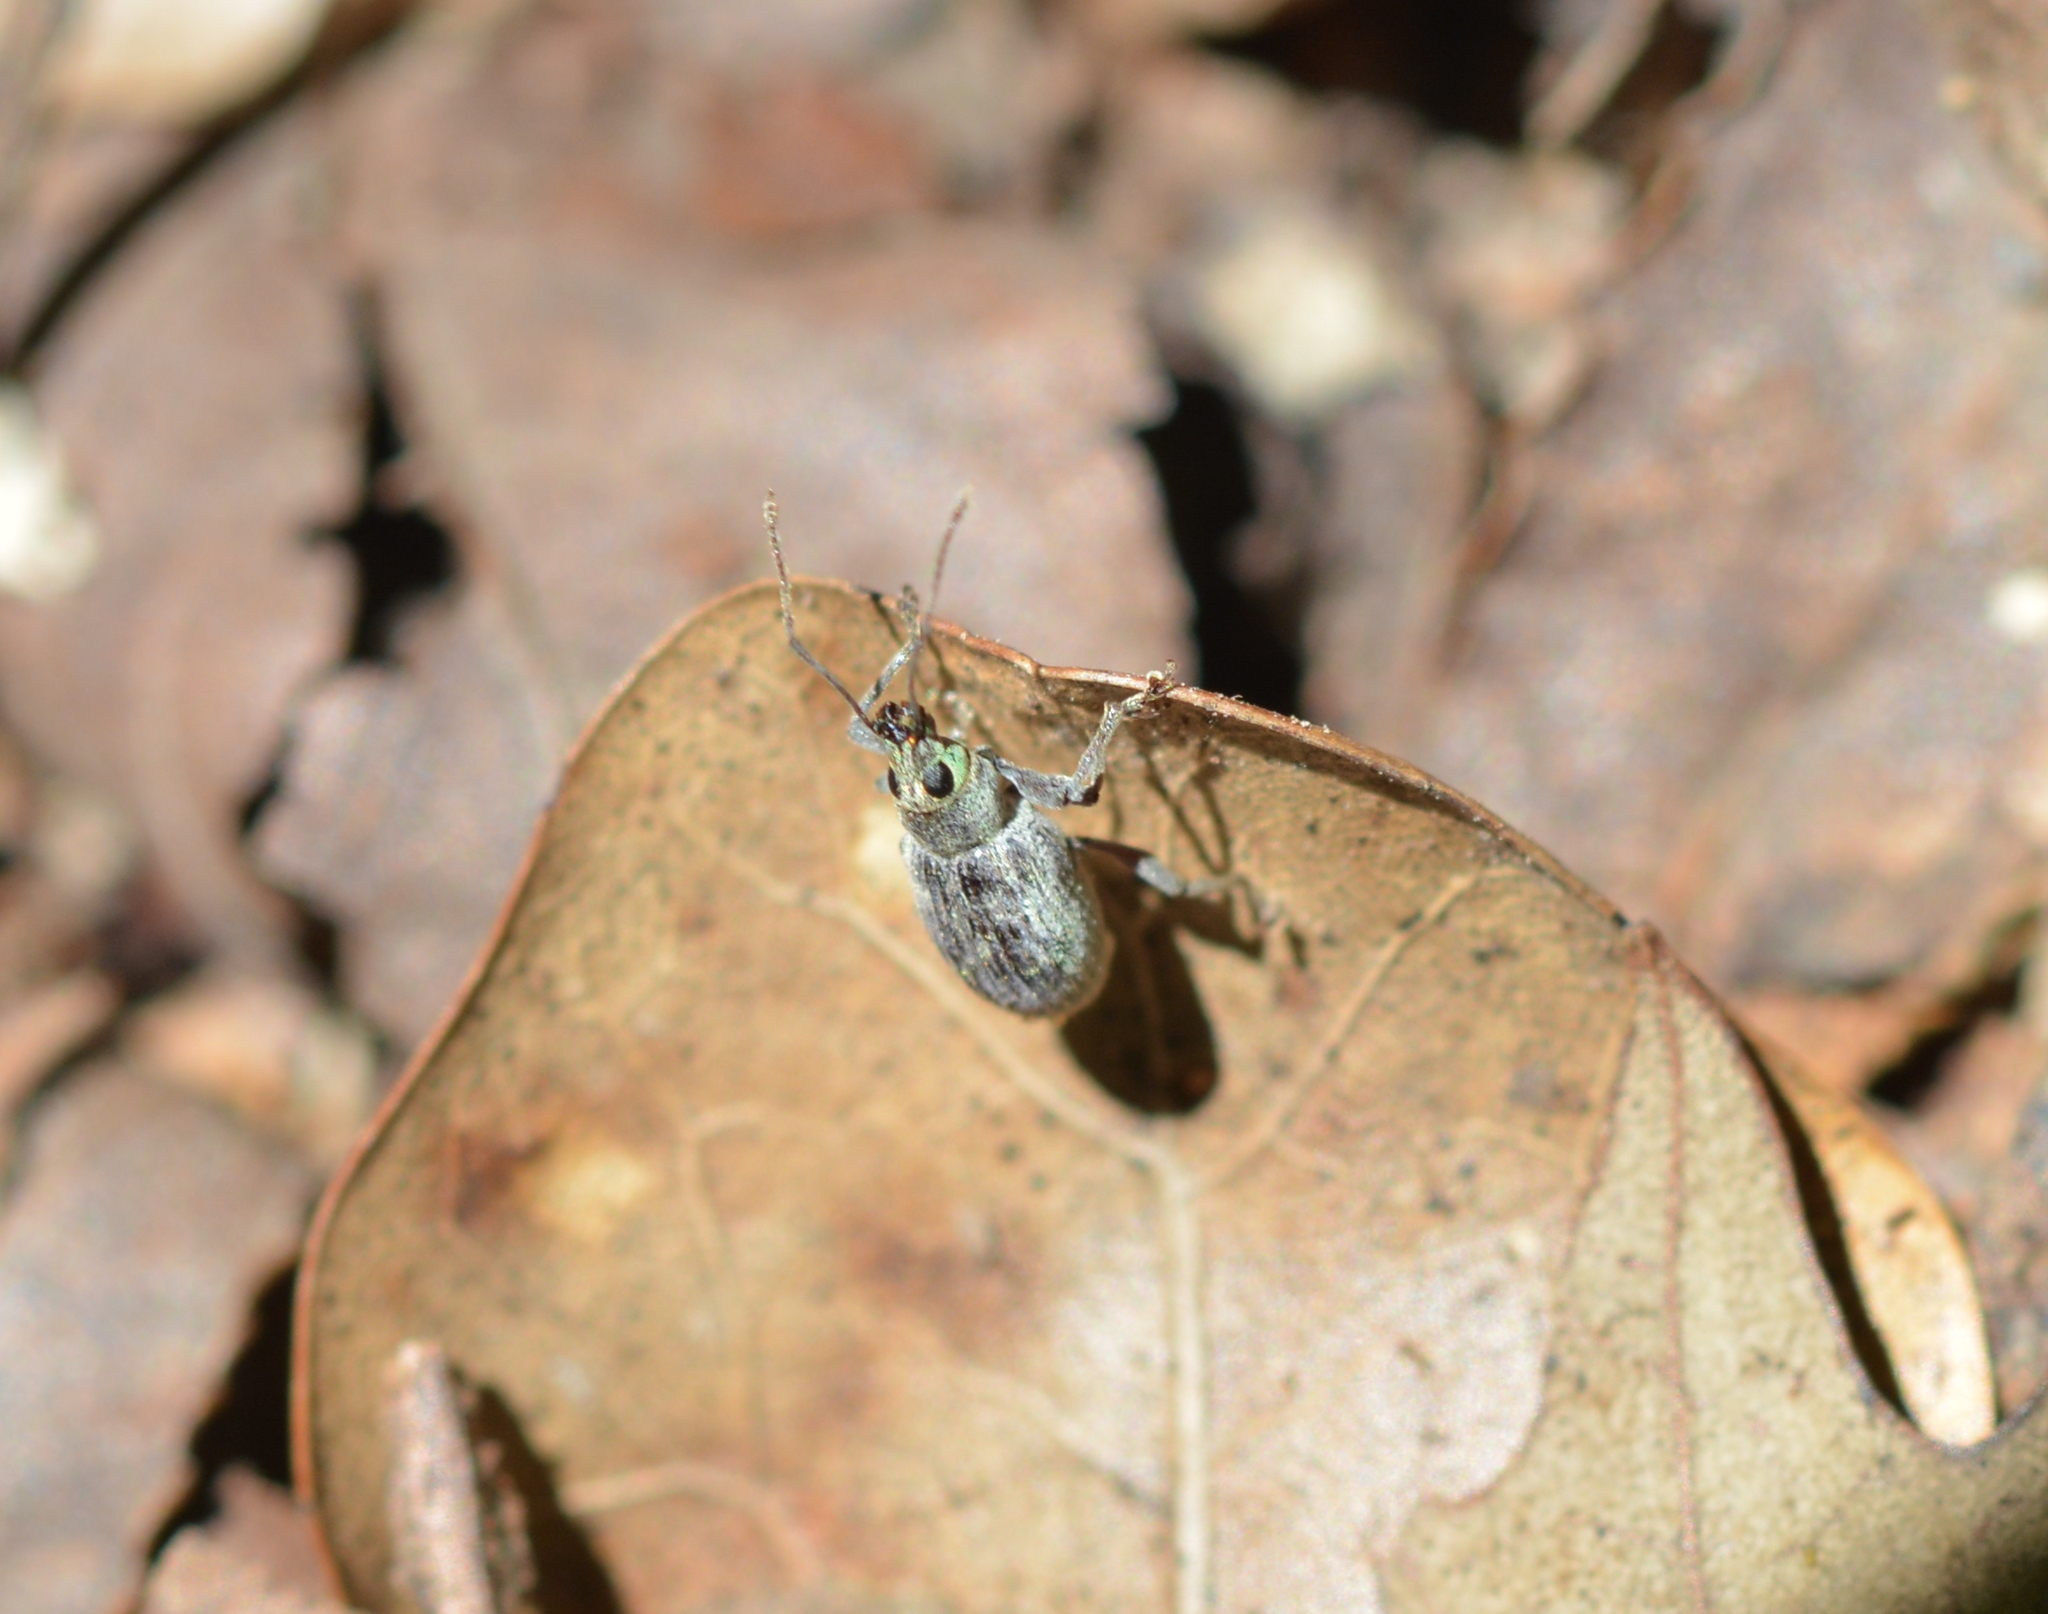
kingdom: Animalia
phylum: Arthropoda
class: Insecta
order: Coleoptera
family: Curculionidae
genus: Cyrtepistomus
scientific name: Cyrtepistomus castaneus
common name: Weevil
